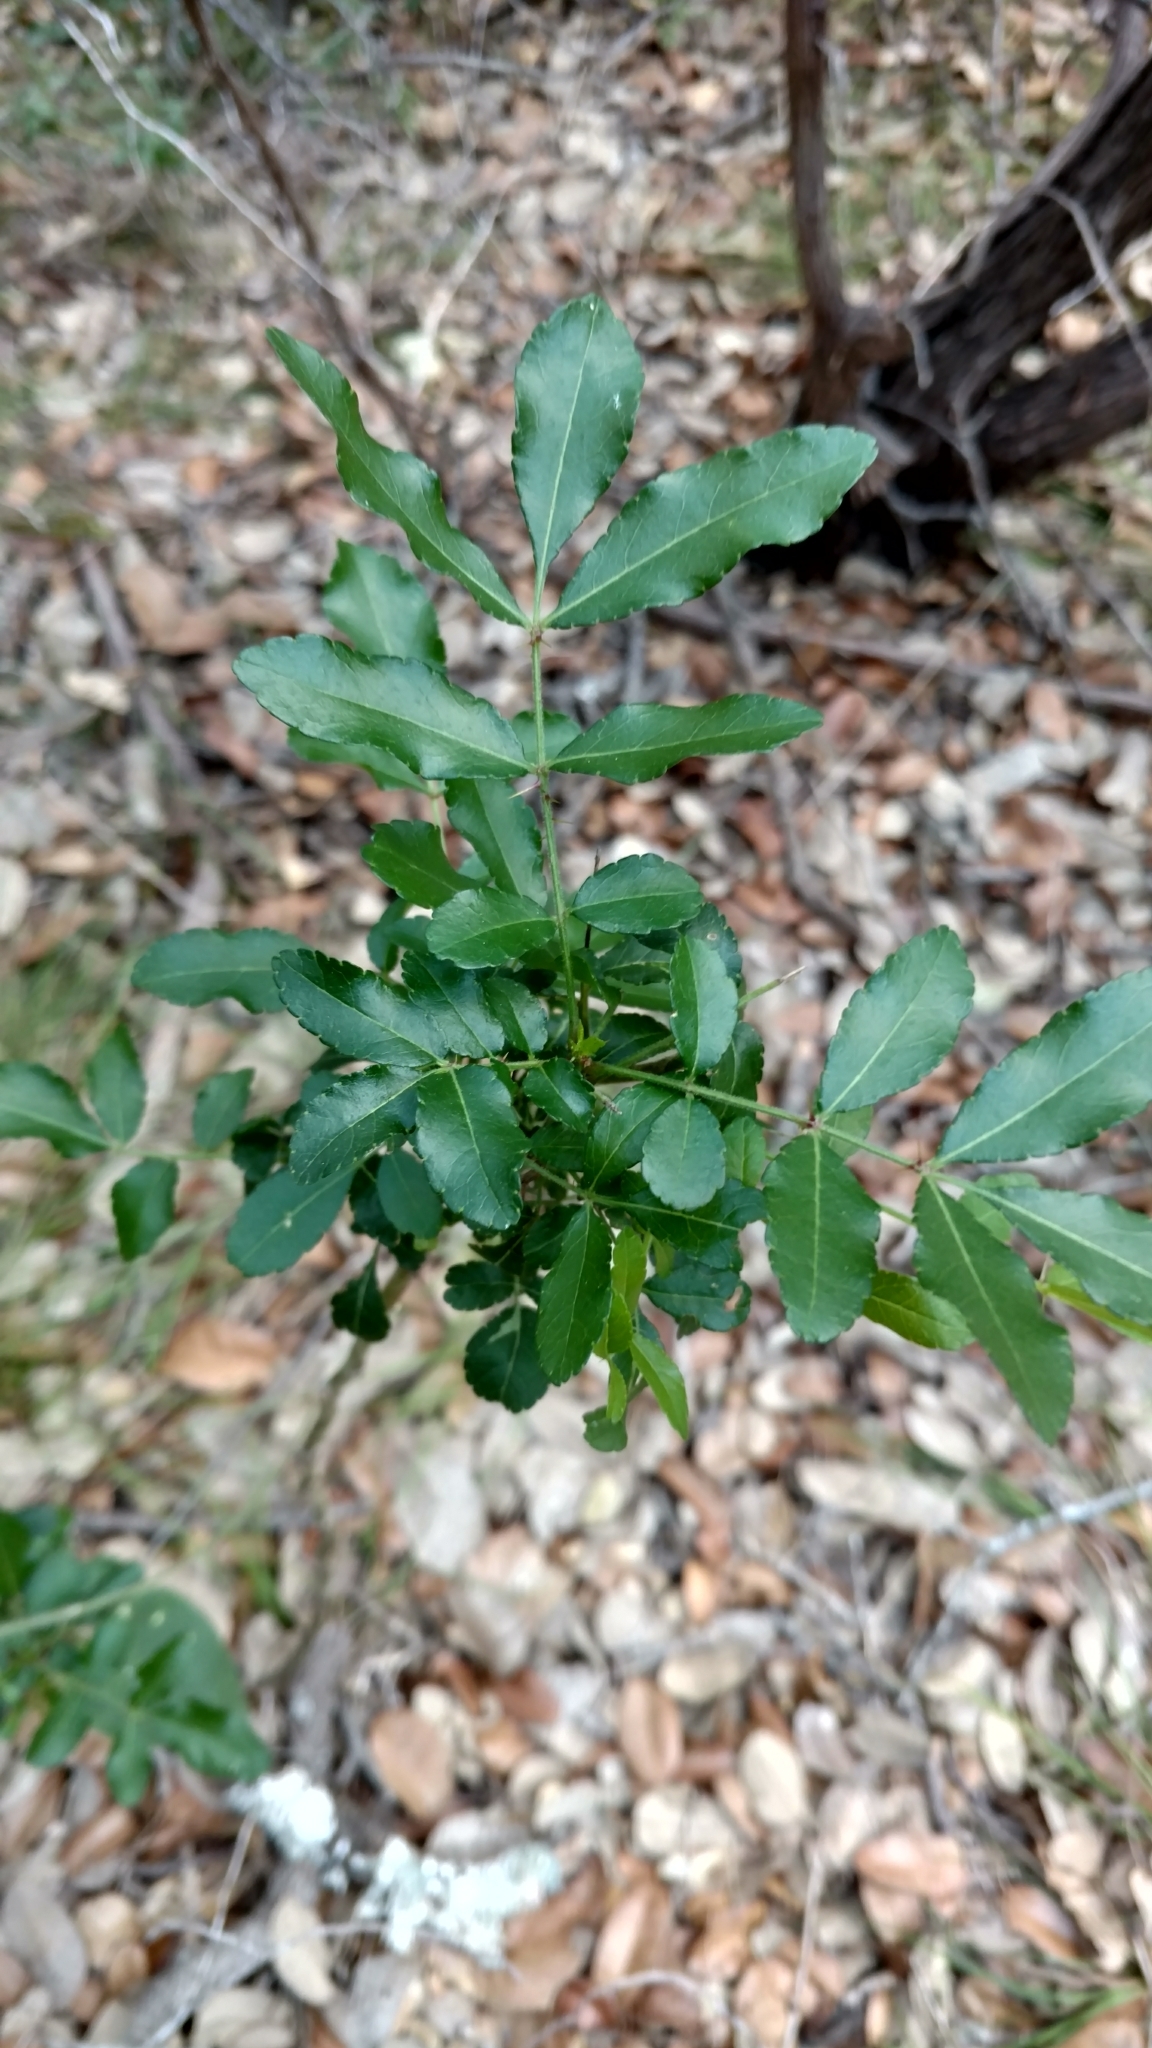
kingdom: Plantae
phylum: Tracheophyta
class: Magnoliopsida
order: Sapindales
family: Rutaceae
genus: Zanthoxylum
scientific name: Zanthoxylum clava-herculis
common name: Hercules'-club
